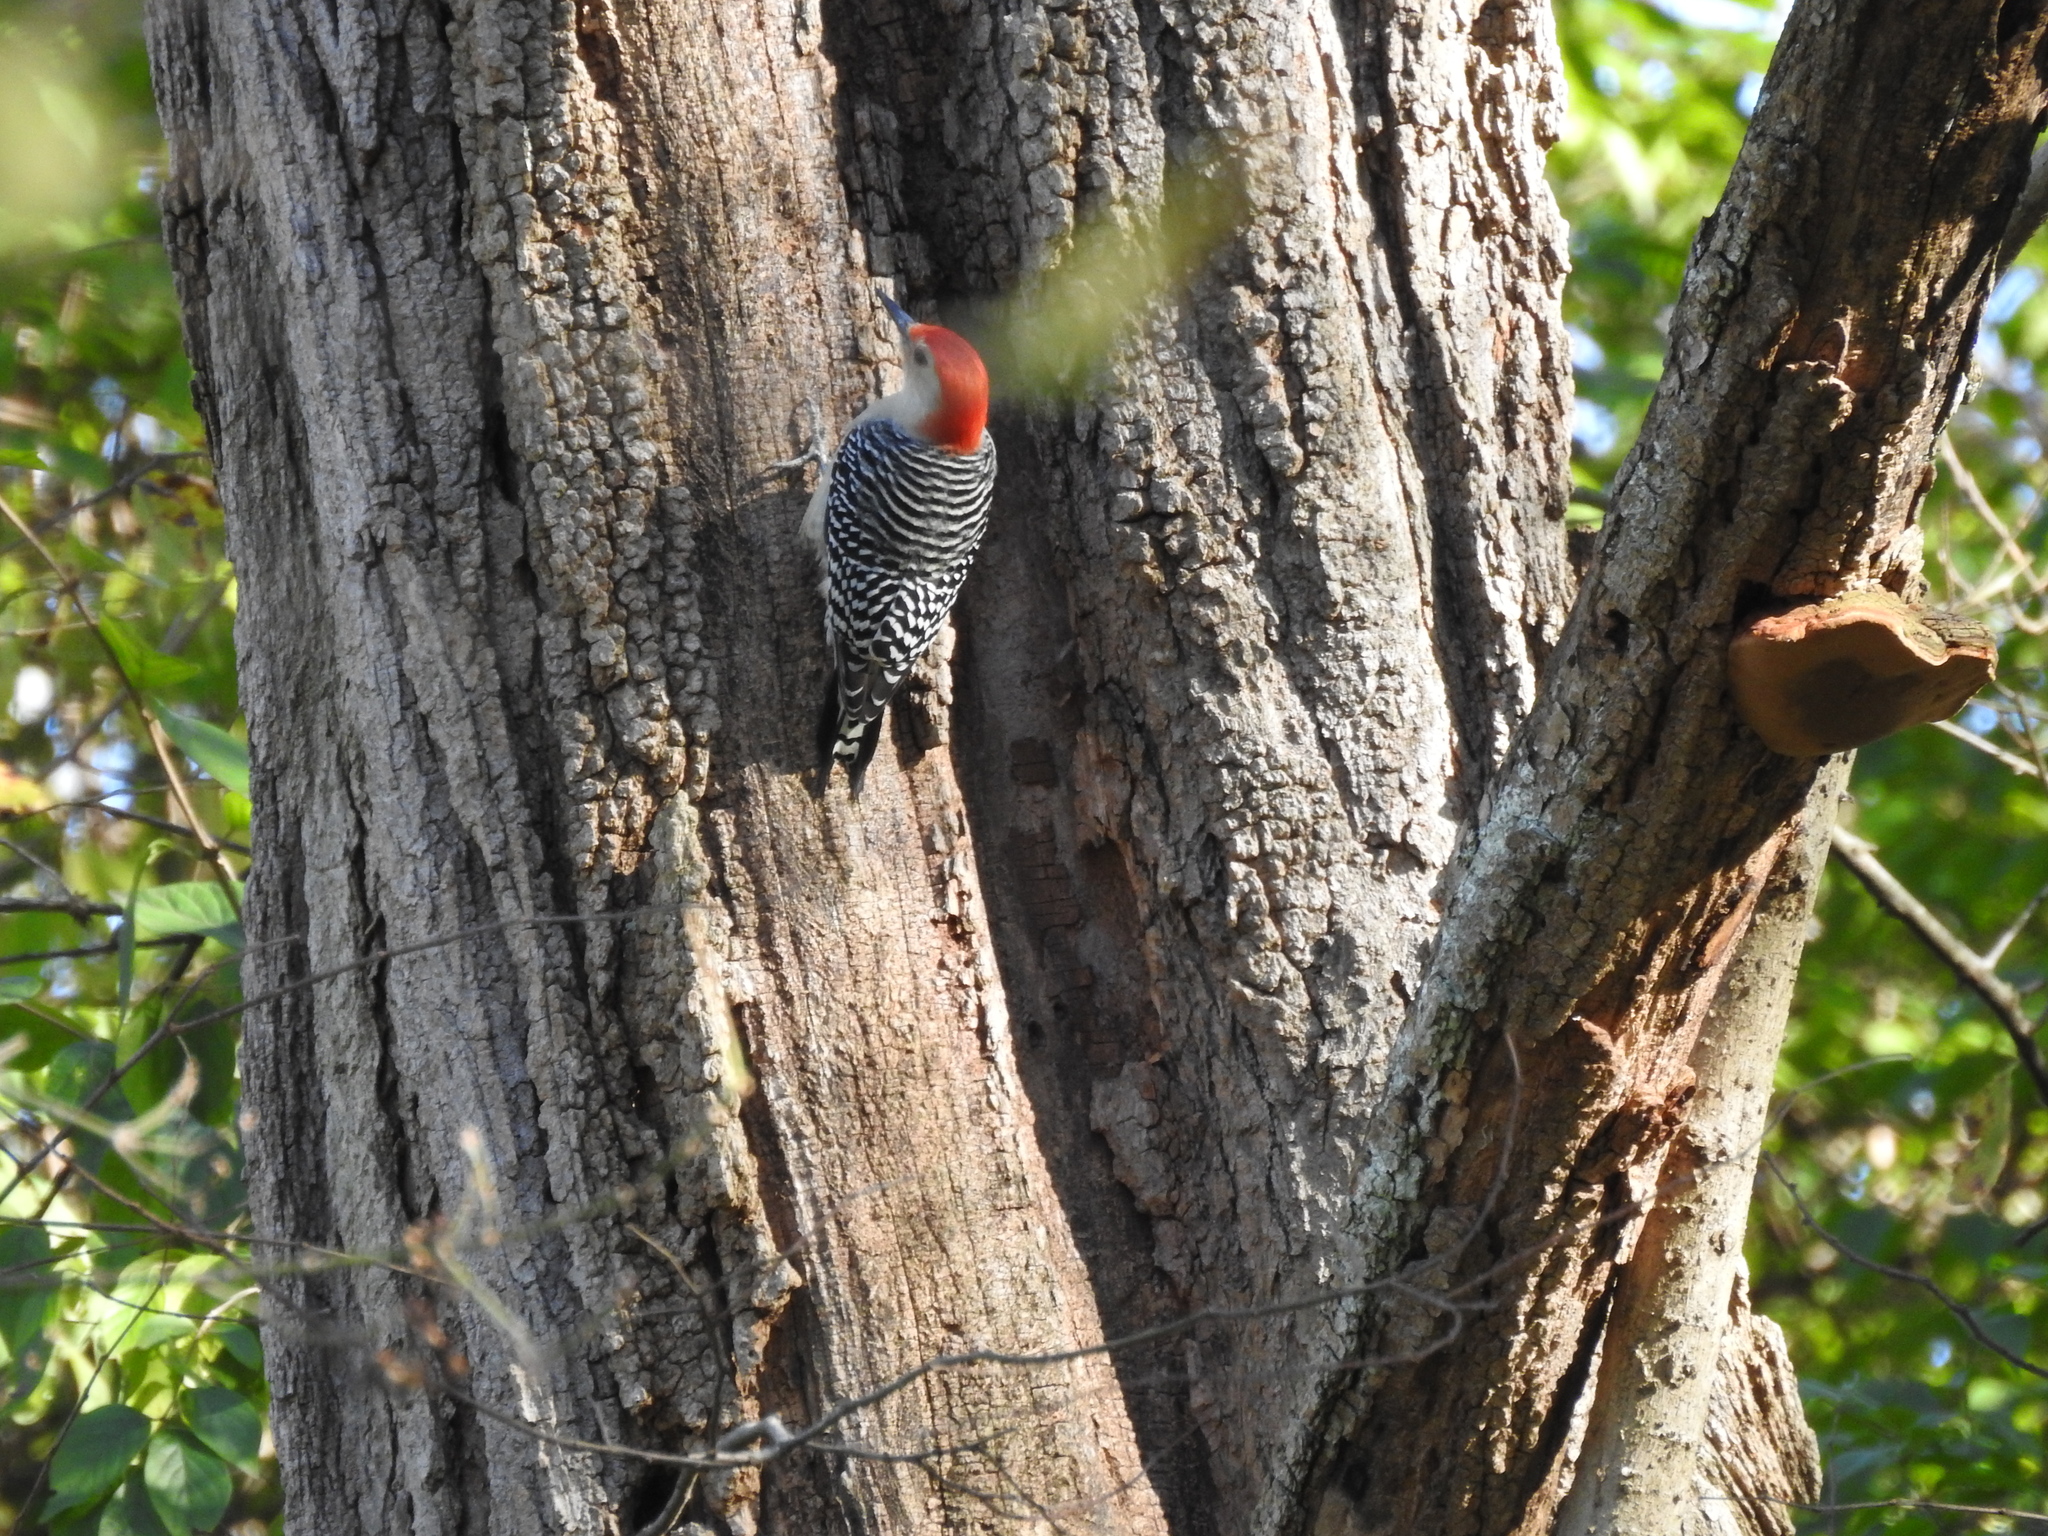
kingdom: Animalia
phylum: Chordata
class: Aves
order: Piciformes
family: Picidae
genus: Melanerpes
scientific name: Melanerpes carolinus
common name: Red-bellied woodpecker
